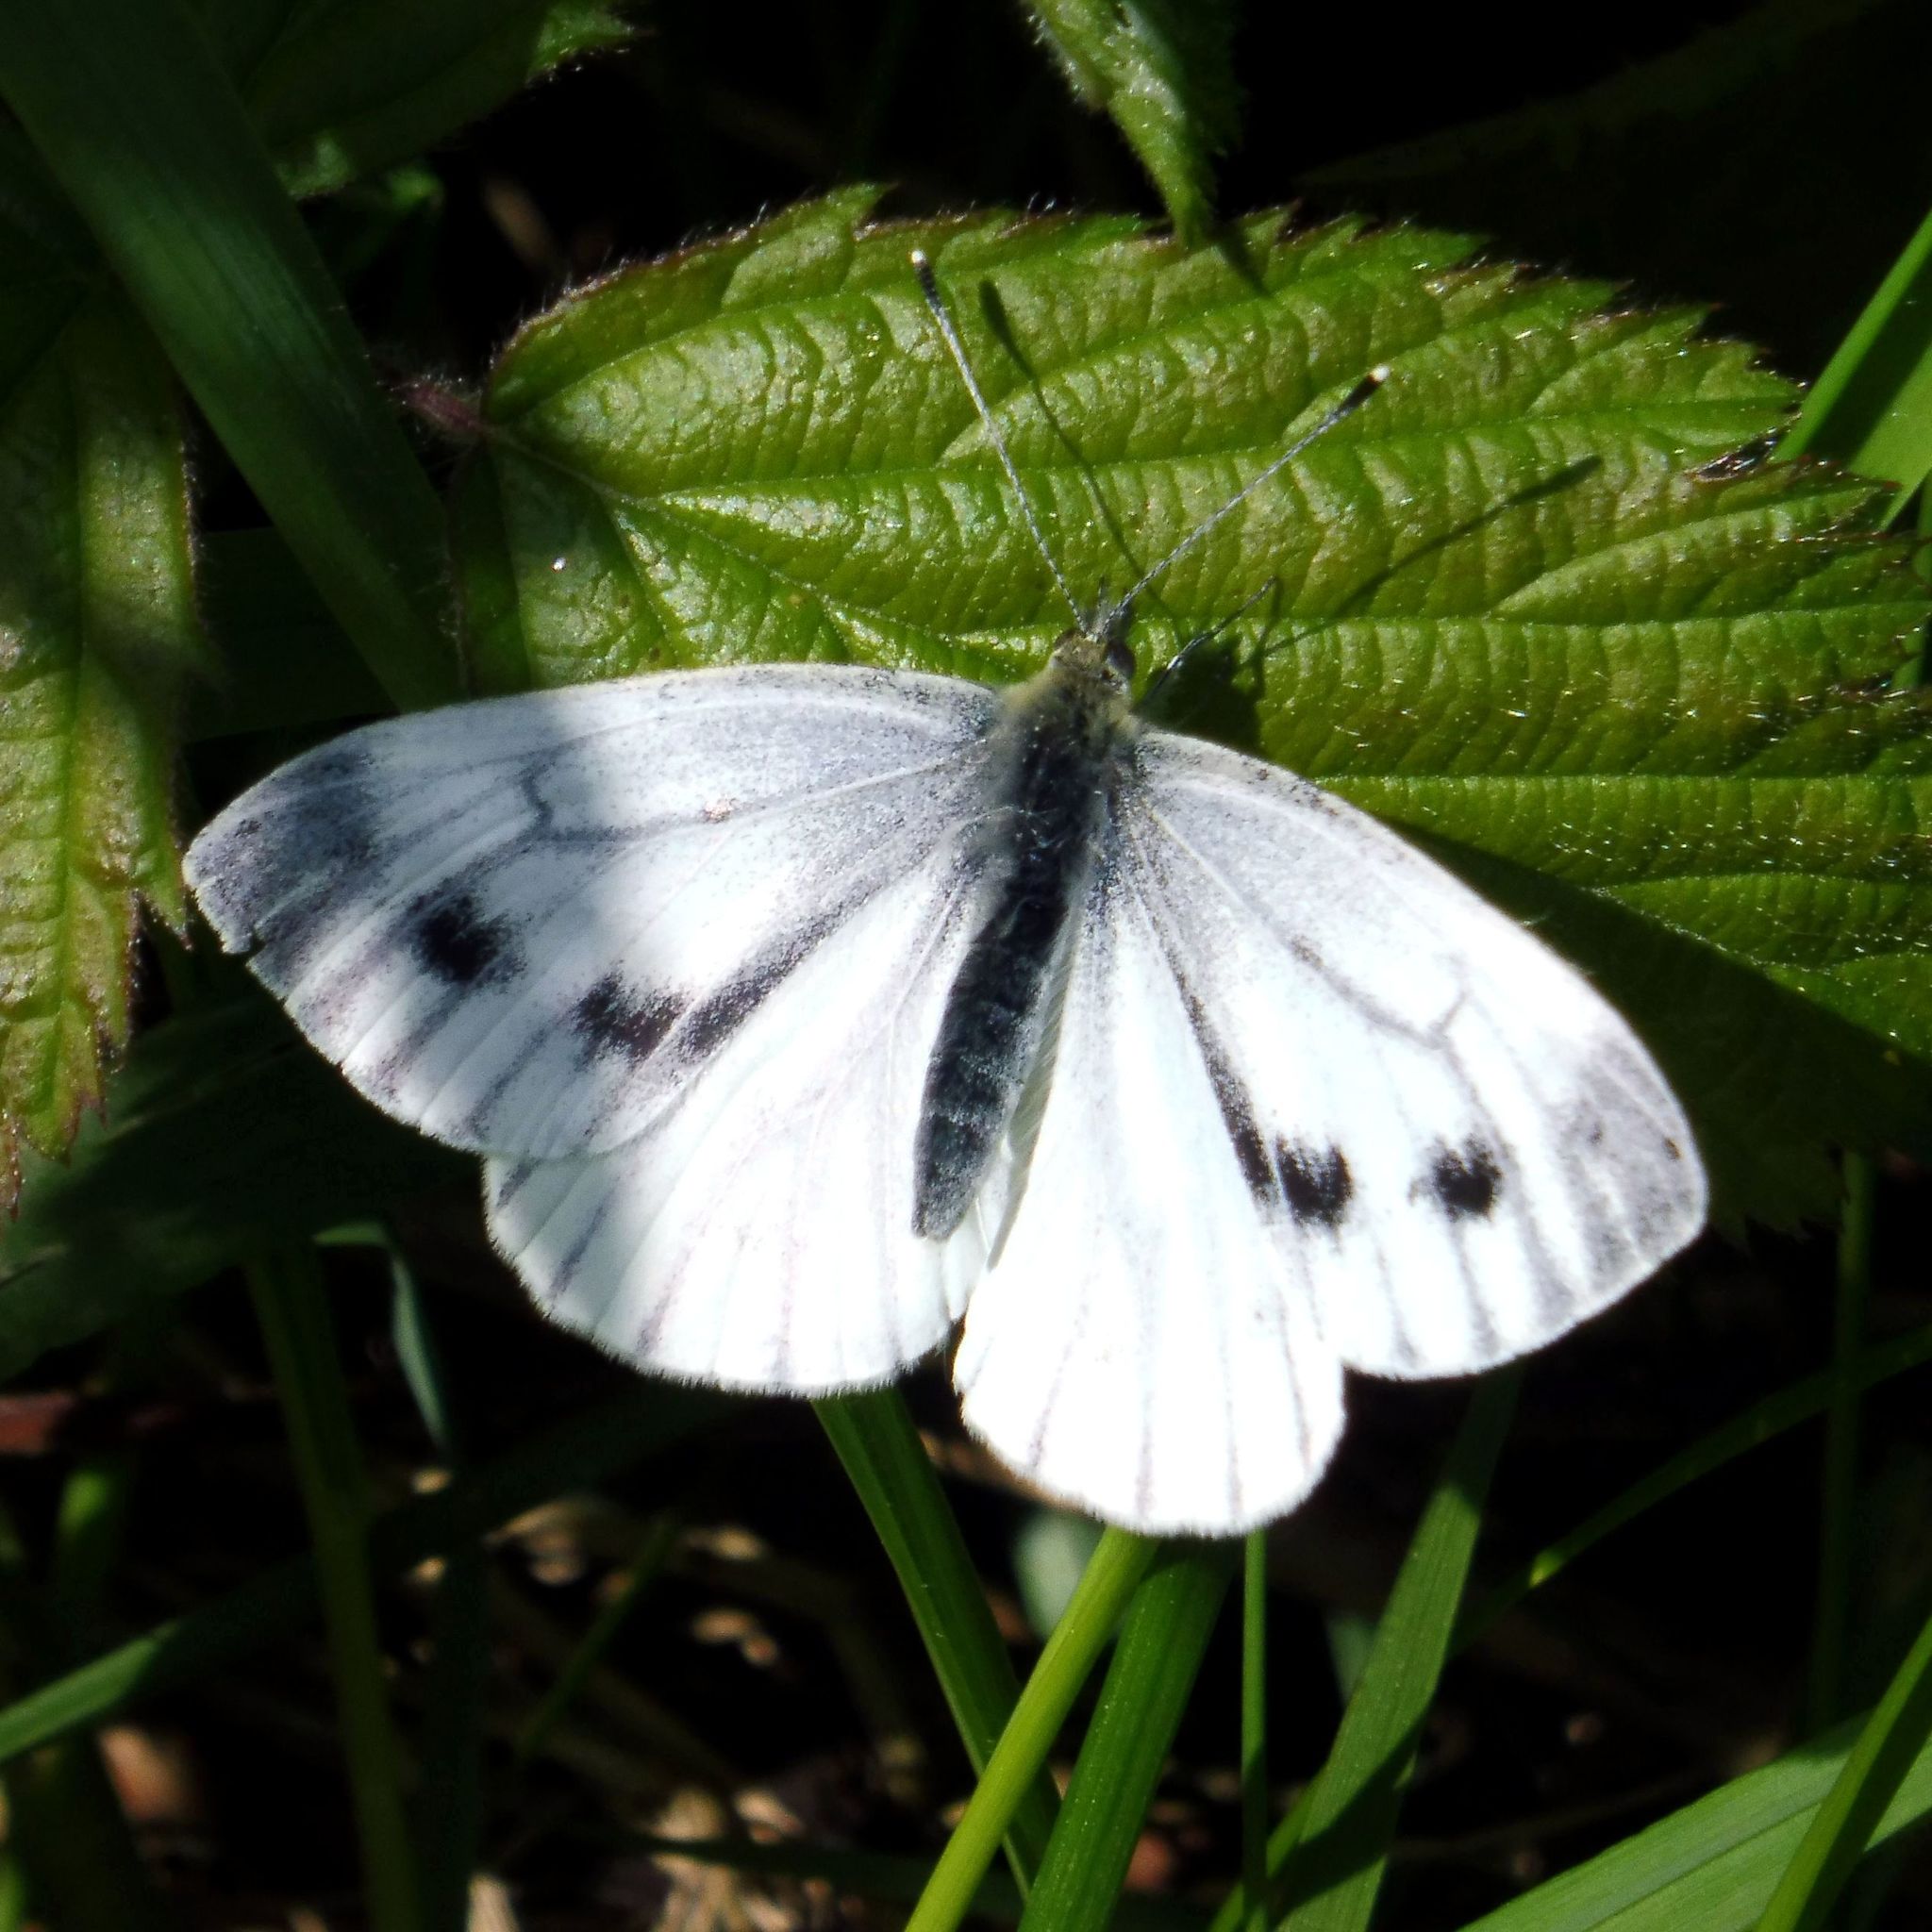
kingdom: Animalia
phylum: Arthropoda
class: Insecta
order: Lepidoptera
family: Pieridae
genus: Pieris
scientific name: Pieris napi
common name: Green-veined white
